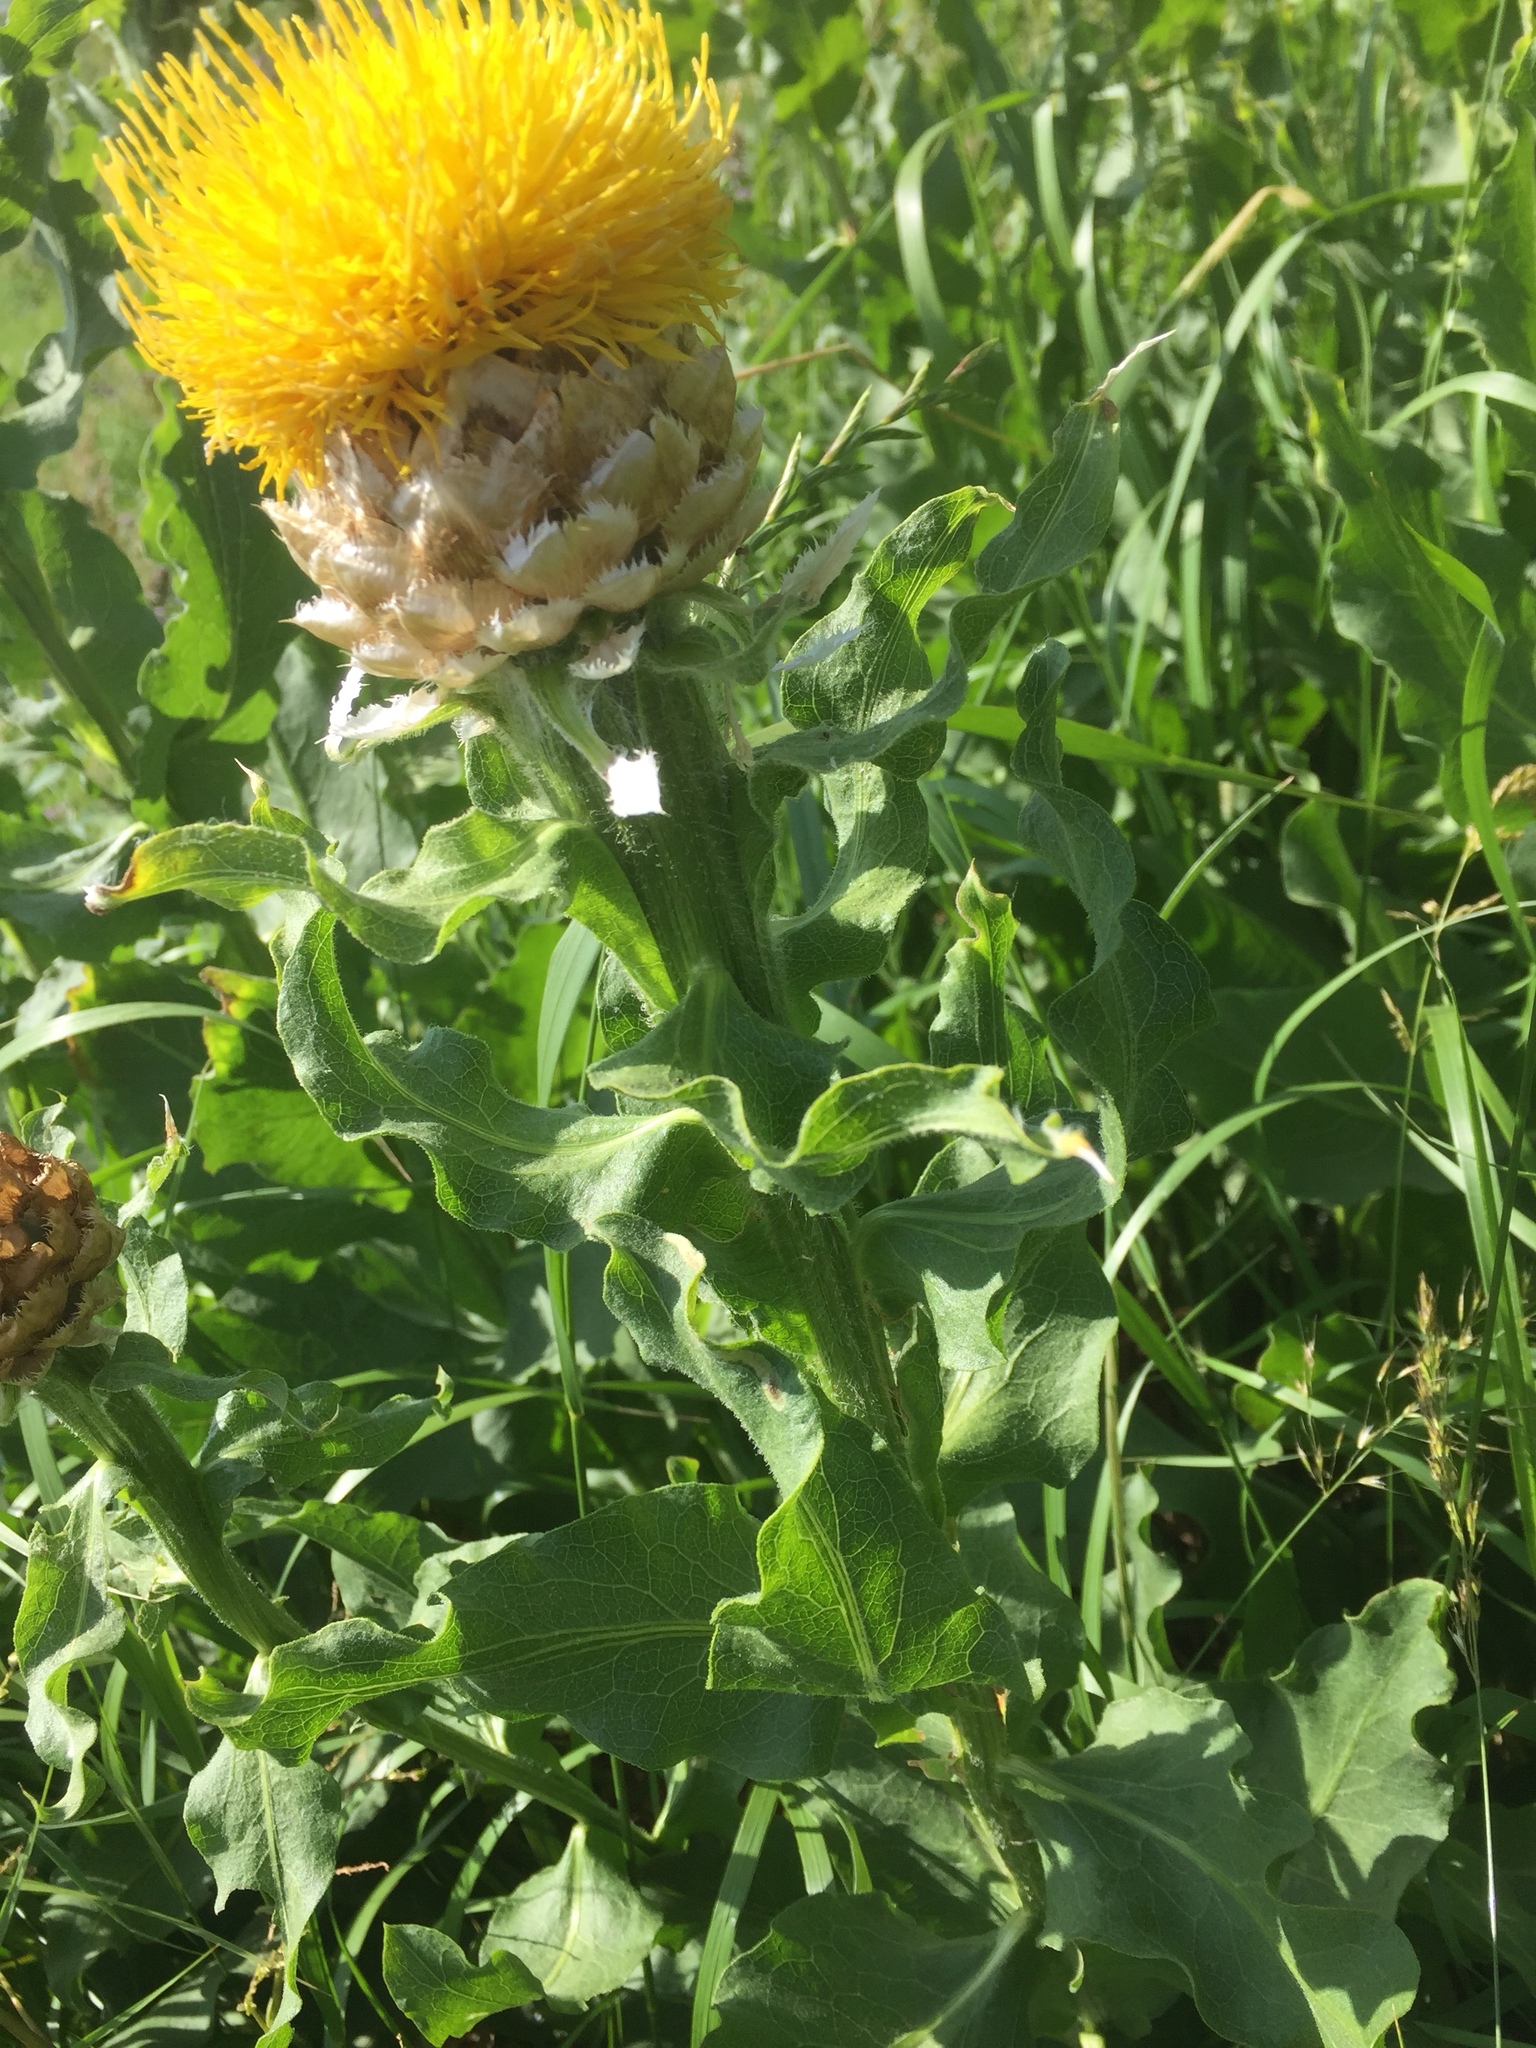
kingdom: Plantae
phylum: Tracheophyta
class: Magnoliopsida
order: Asterales
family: Asteraceae
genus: Centaurea
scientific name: Centaurea macrocephala
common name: Big-head knapweed
